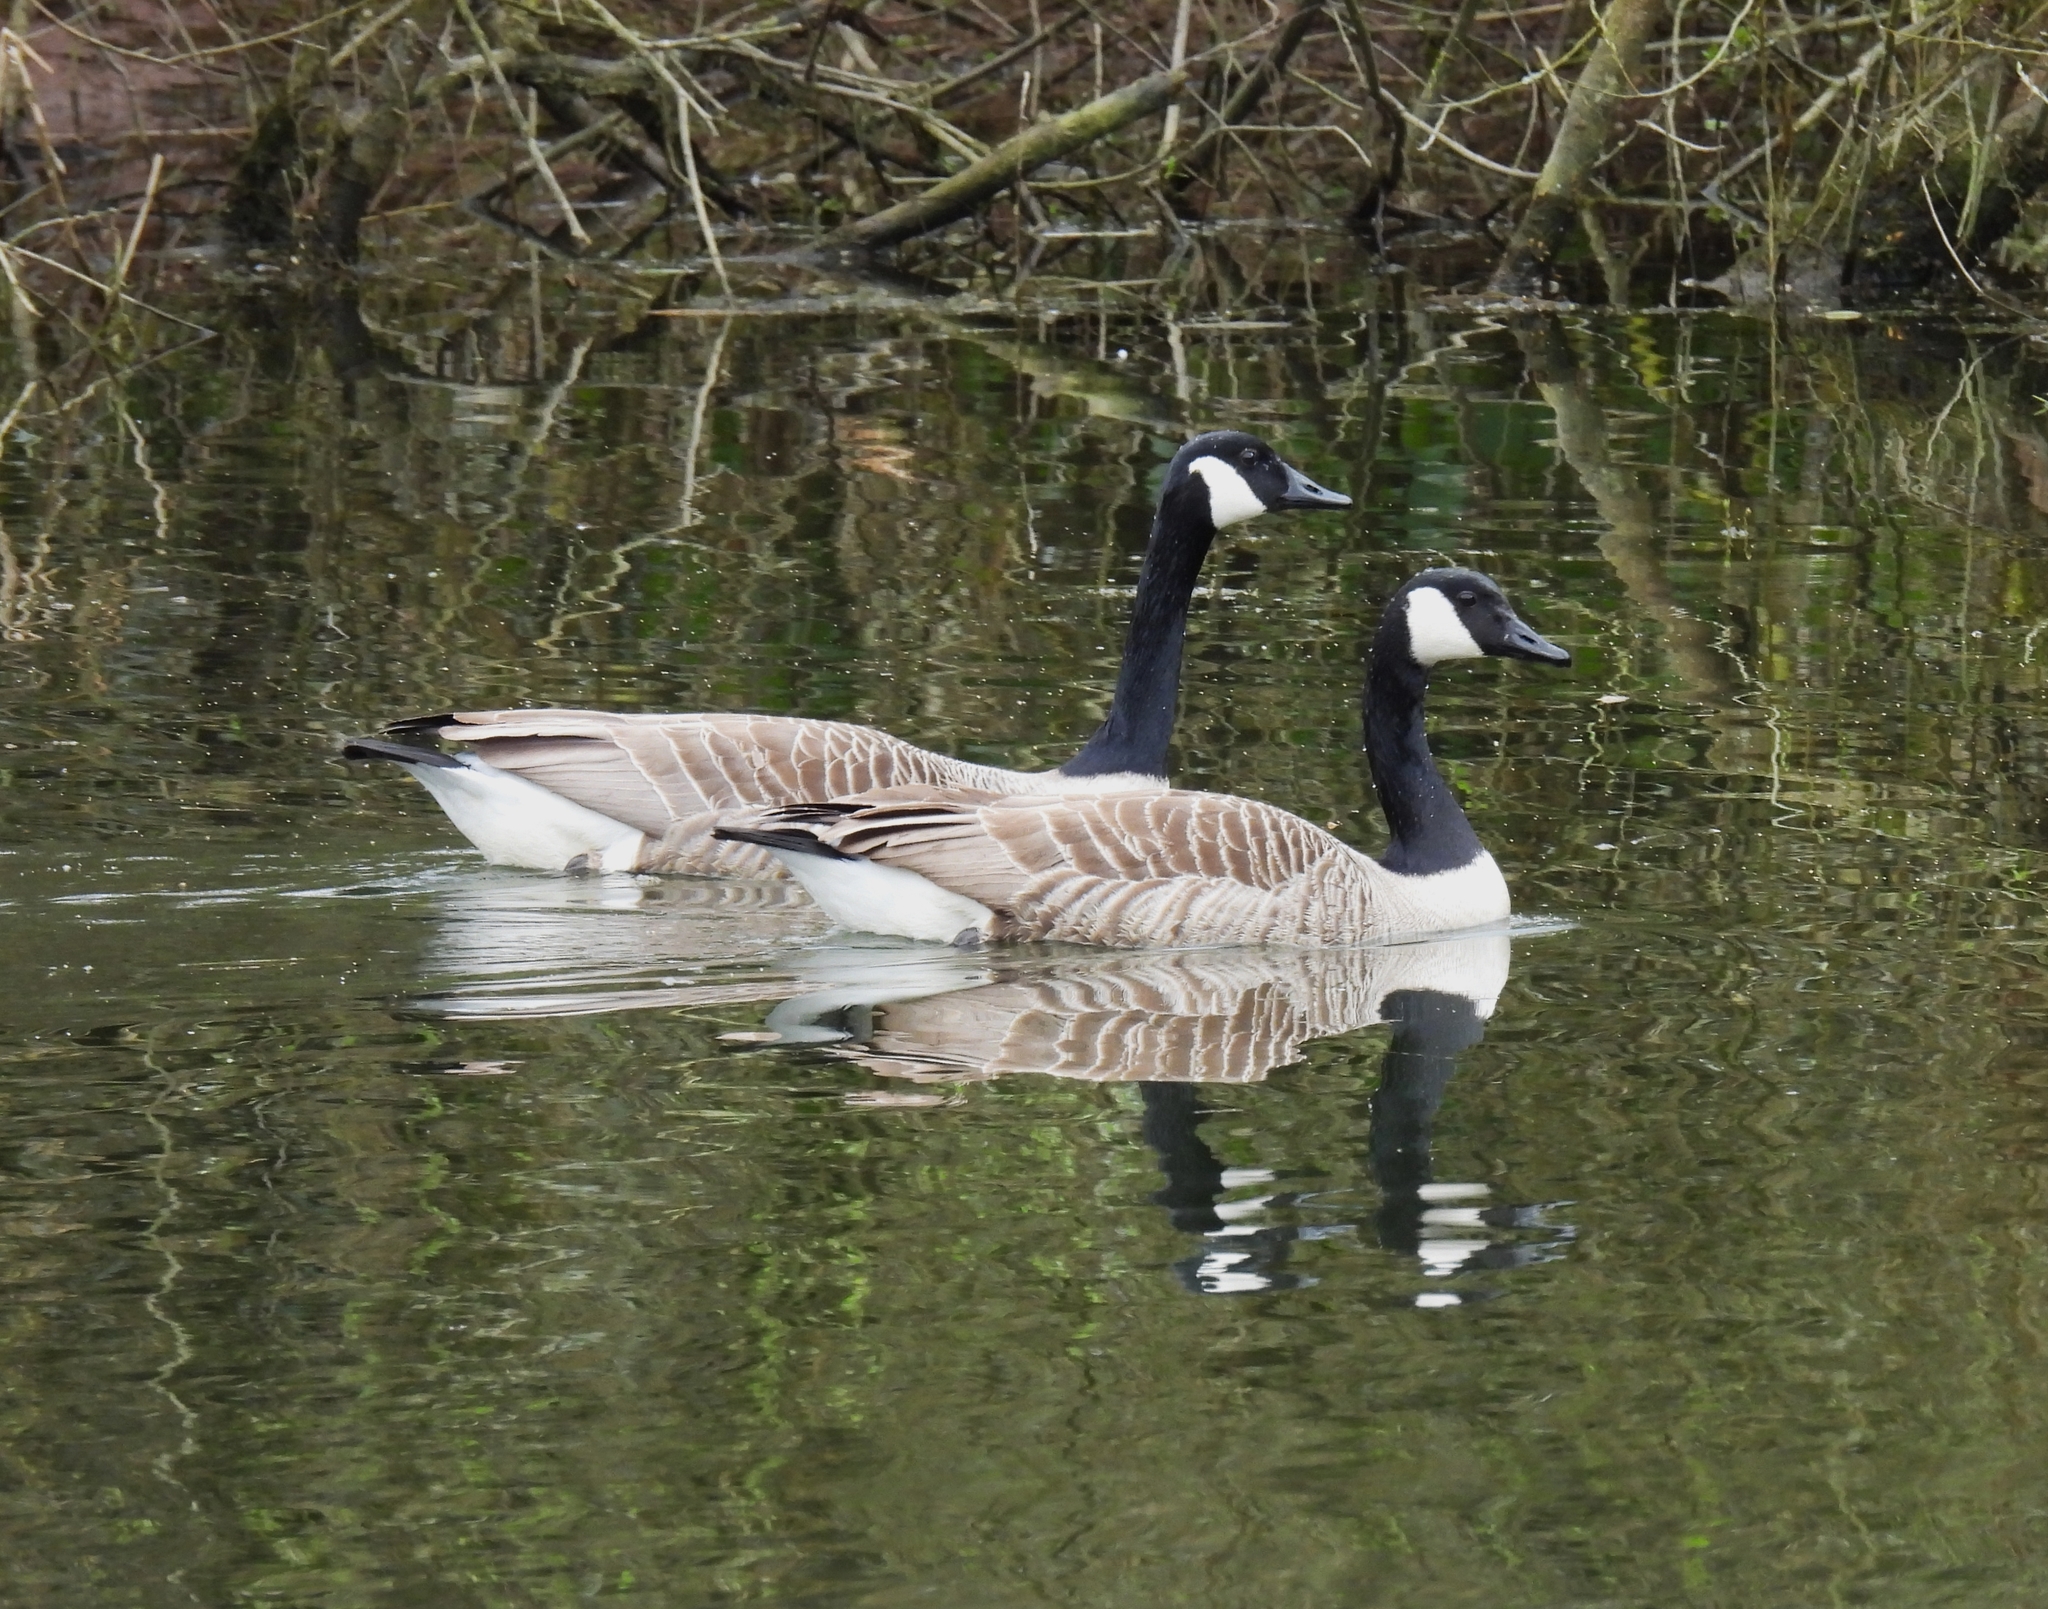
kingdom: Animalia
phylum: Chordata
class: Aves
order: Anseriformes
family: Anatidae
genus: Branta
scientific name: Branta canadensis
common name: Canada goose
